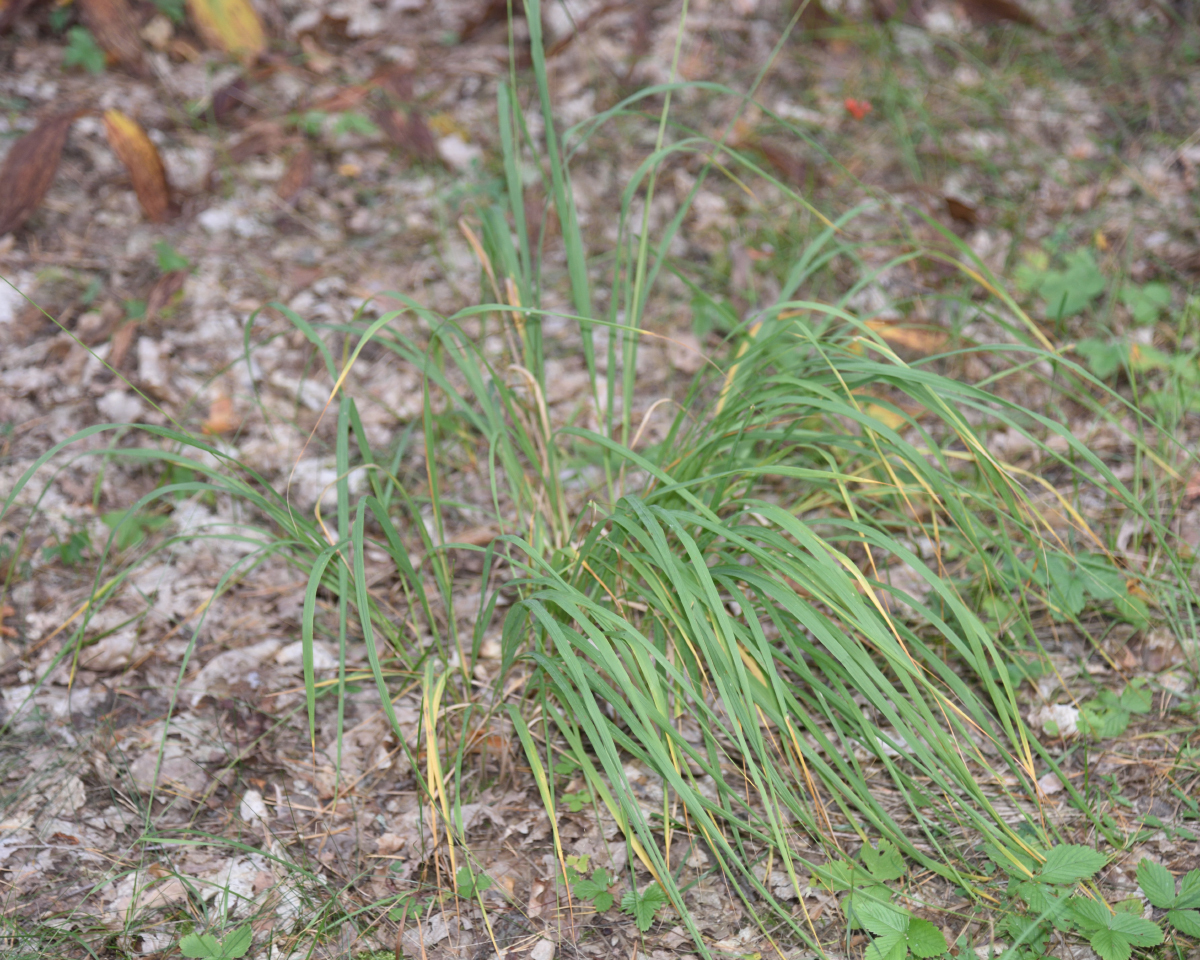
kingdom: Plantae
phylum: Tracheophyta
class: Liliopsida
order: Poales
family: Poaceae
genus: Molinia
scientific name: Molinia caerulea
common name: Purple moor-grass
